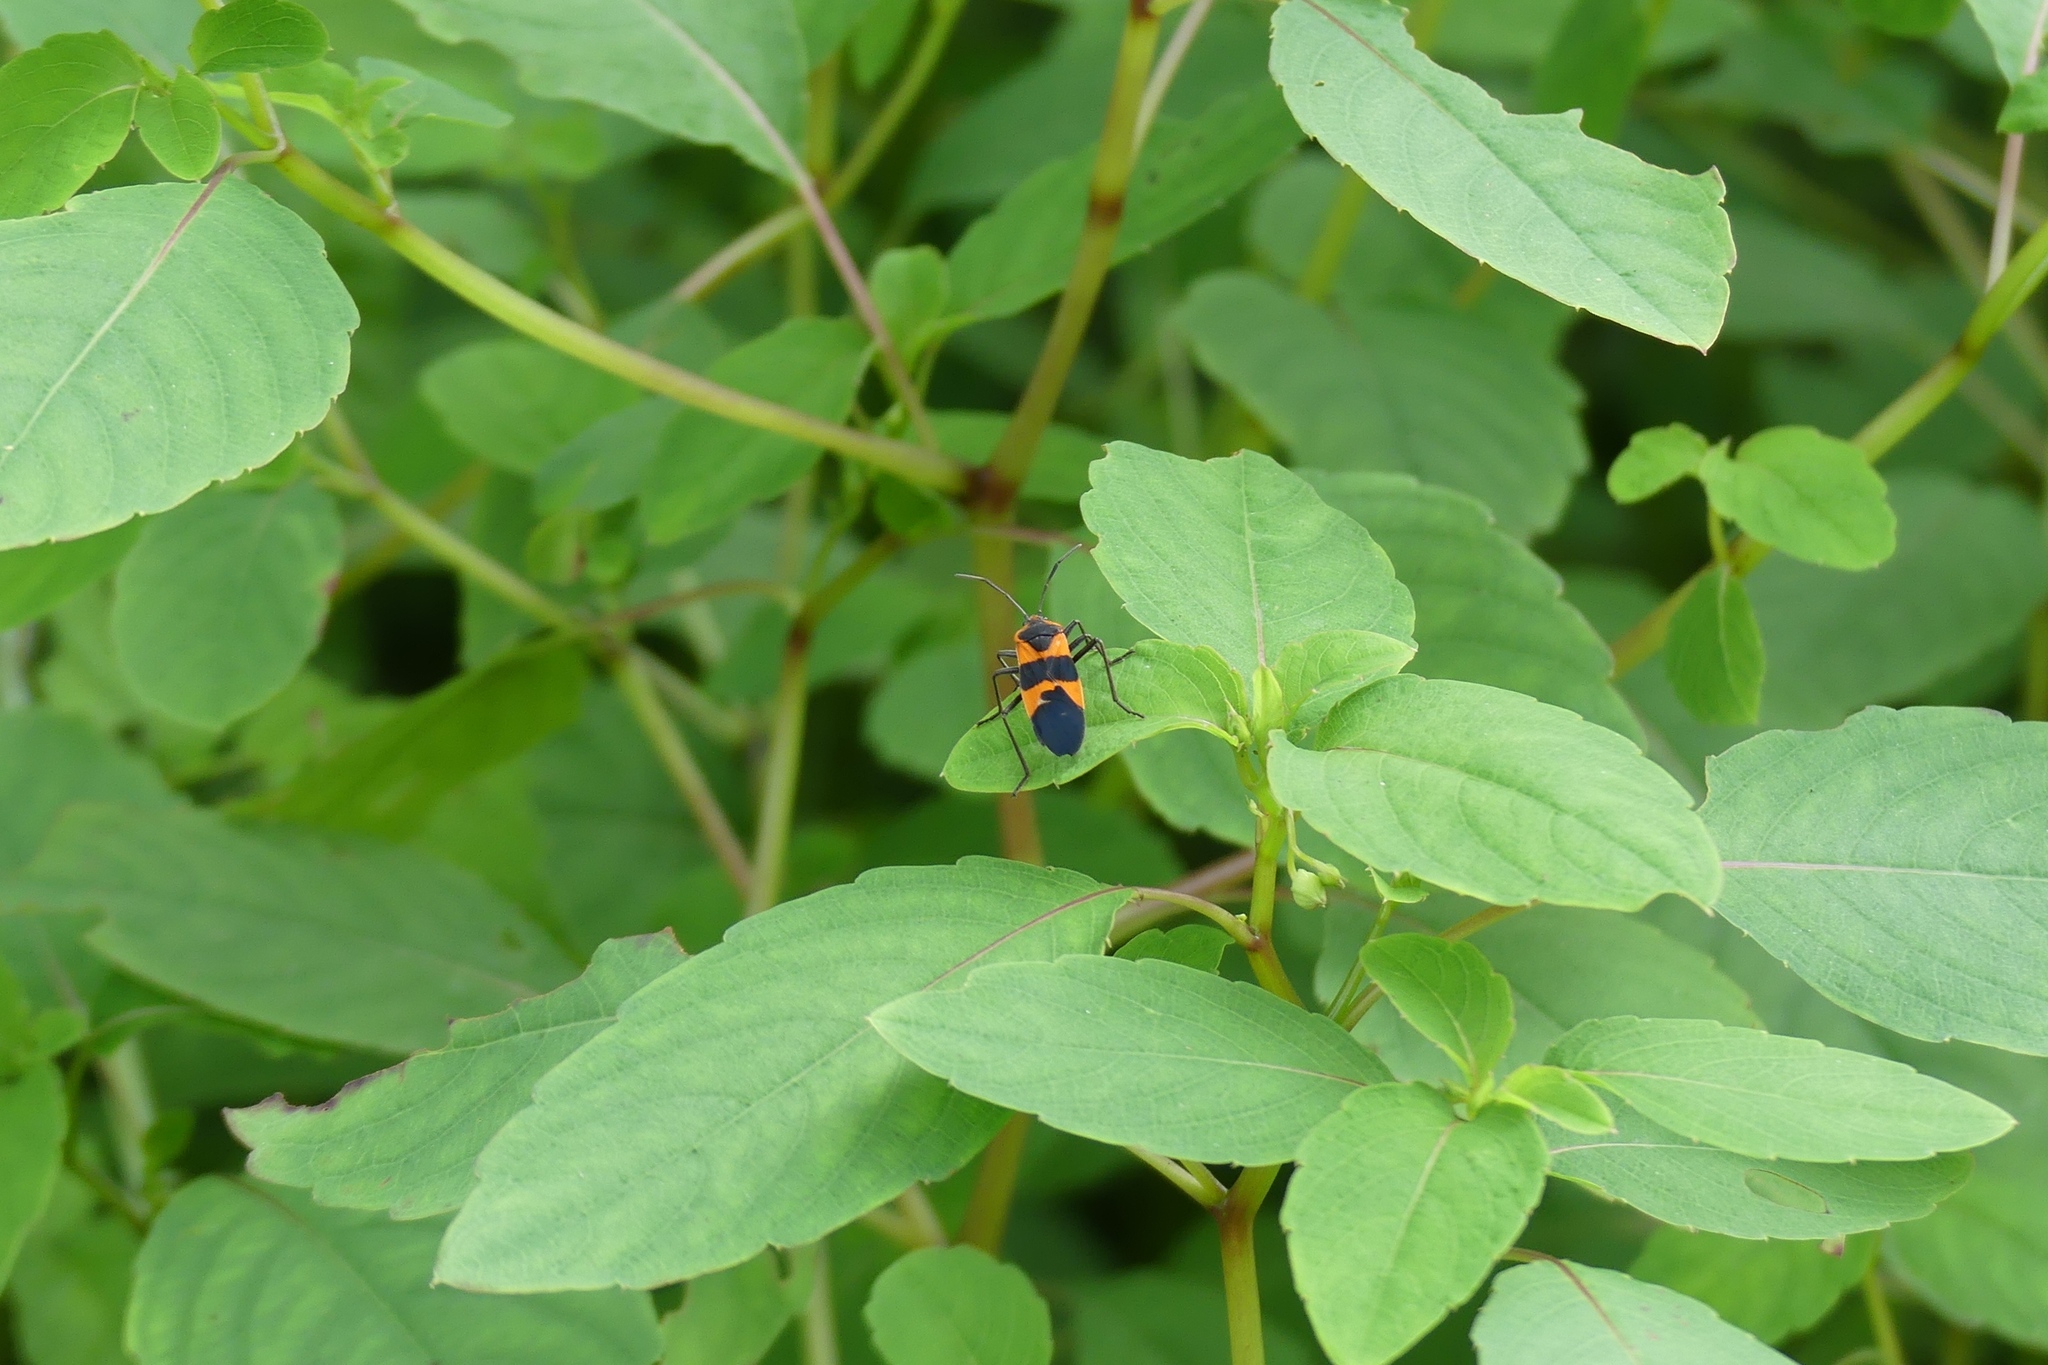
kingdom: Animalia
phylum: Arthropoda
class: Insecta
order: Hemiptera
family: Lygaeidae
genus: Oncopeltus
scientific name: Oncopeltus fasciatus
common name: Large milkweed bug
